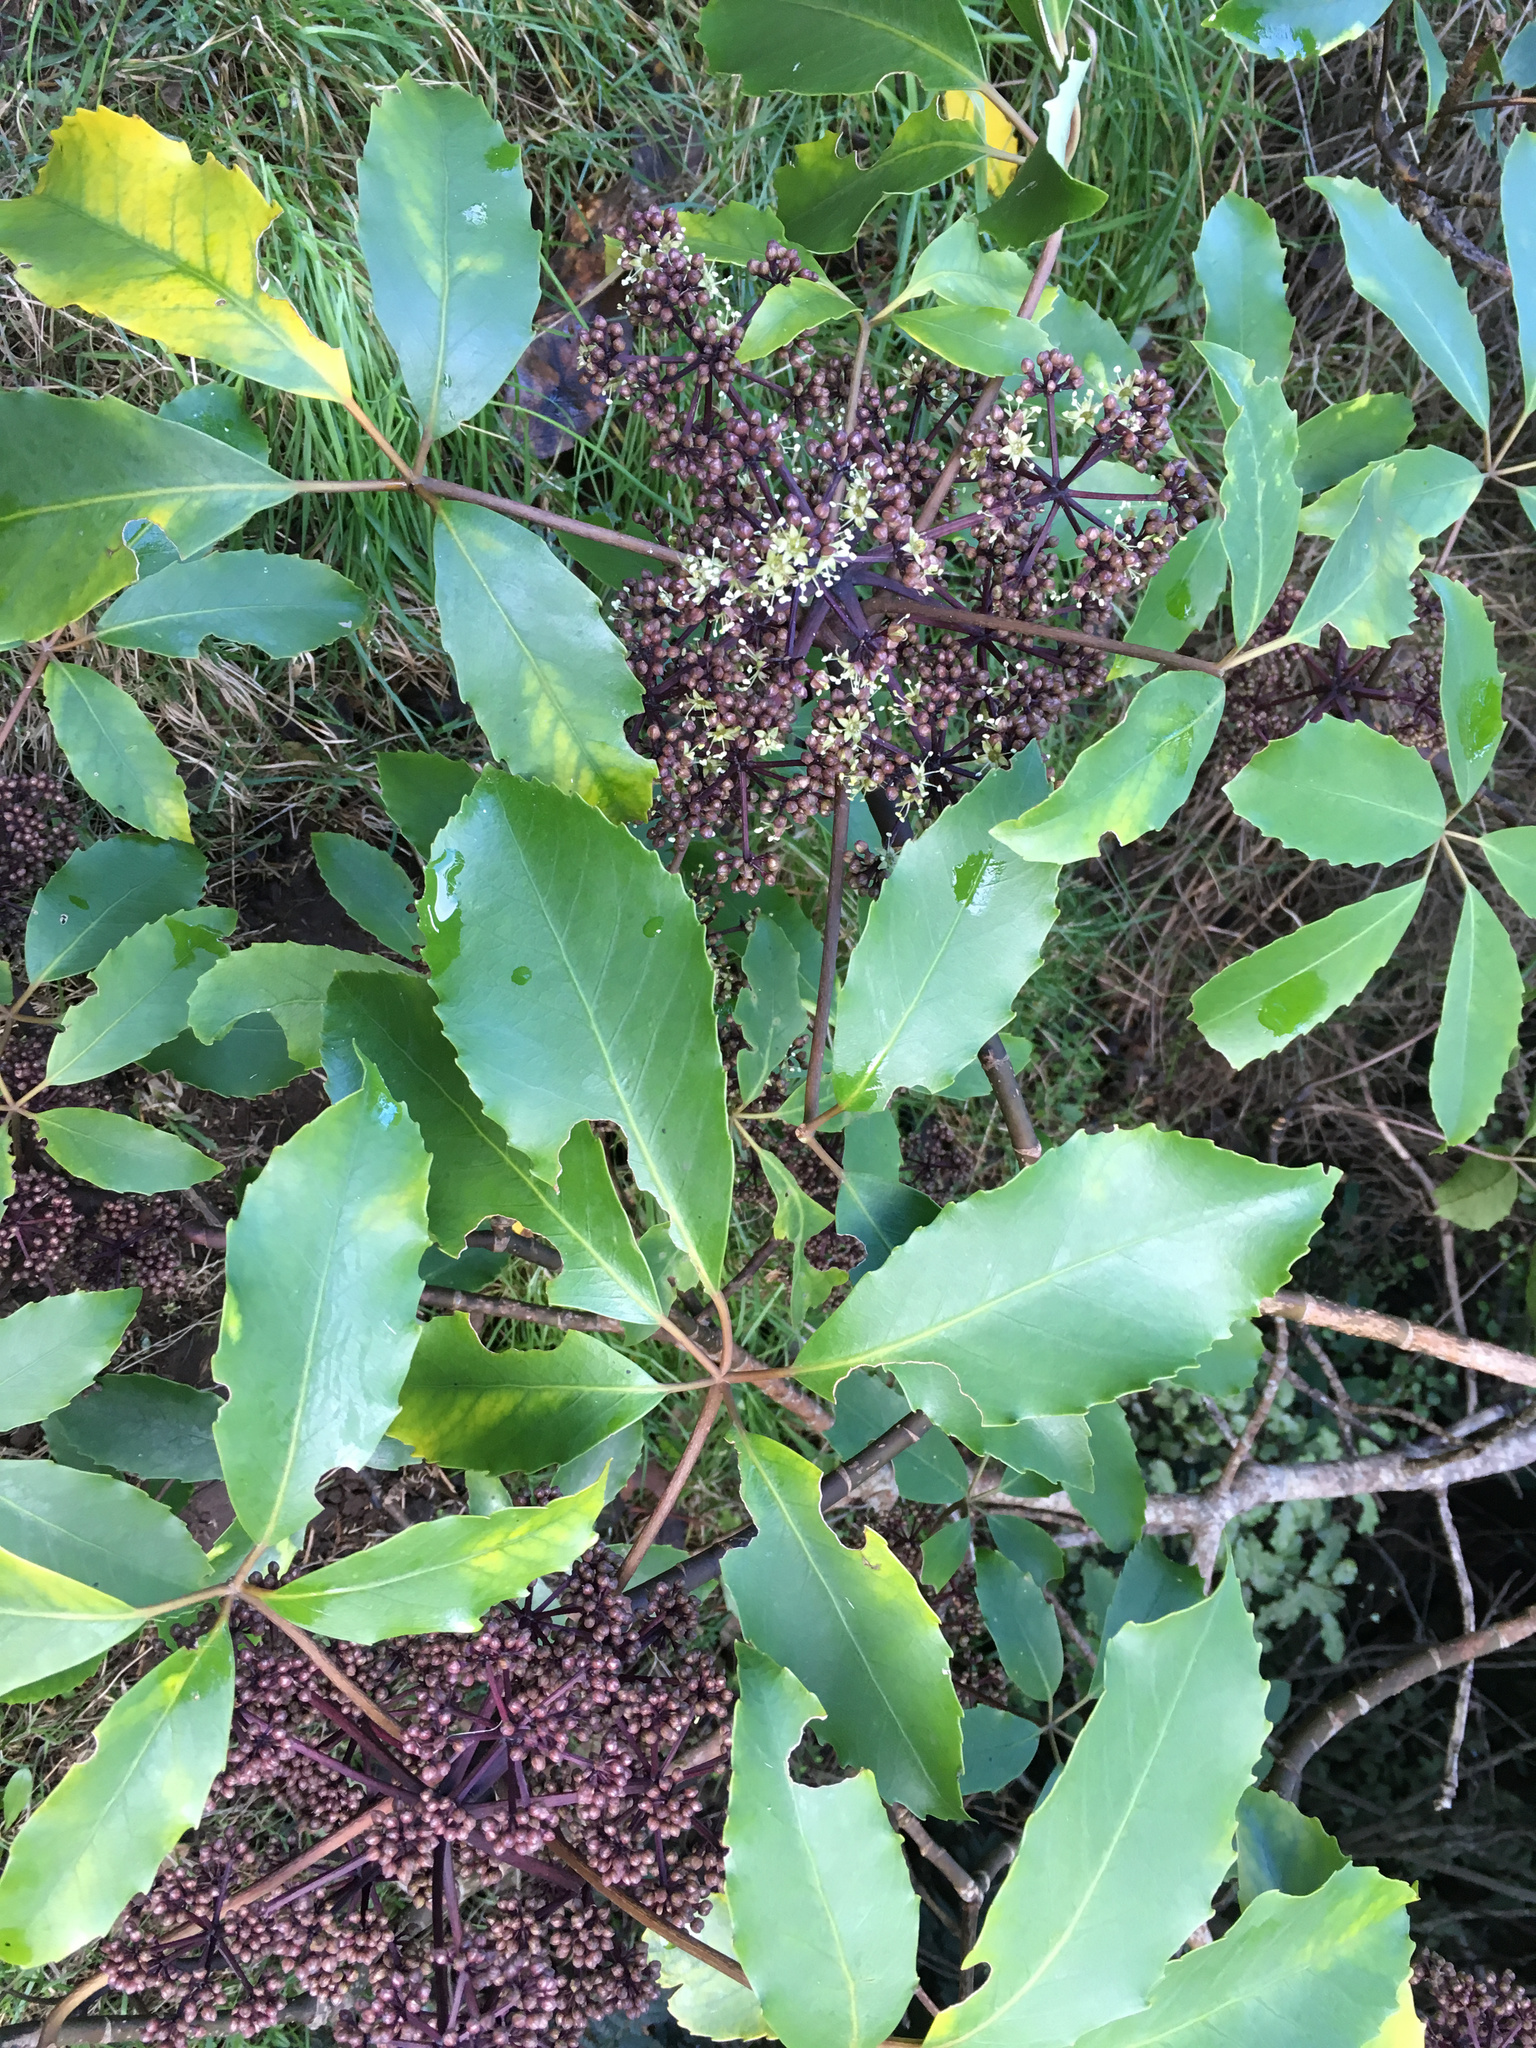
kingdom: Plantae
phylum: Tracheophyta
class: Magnoliopsida
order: Apiales
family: Araliaceae
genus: Neopanax
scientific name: Neopanax arboreus
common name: Five-fingers
